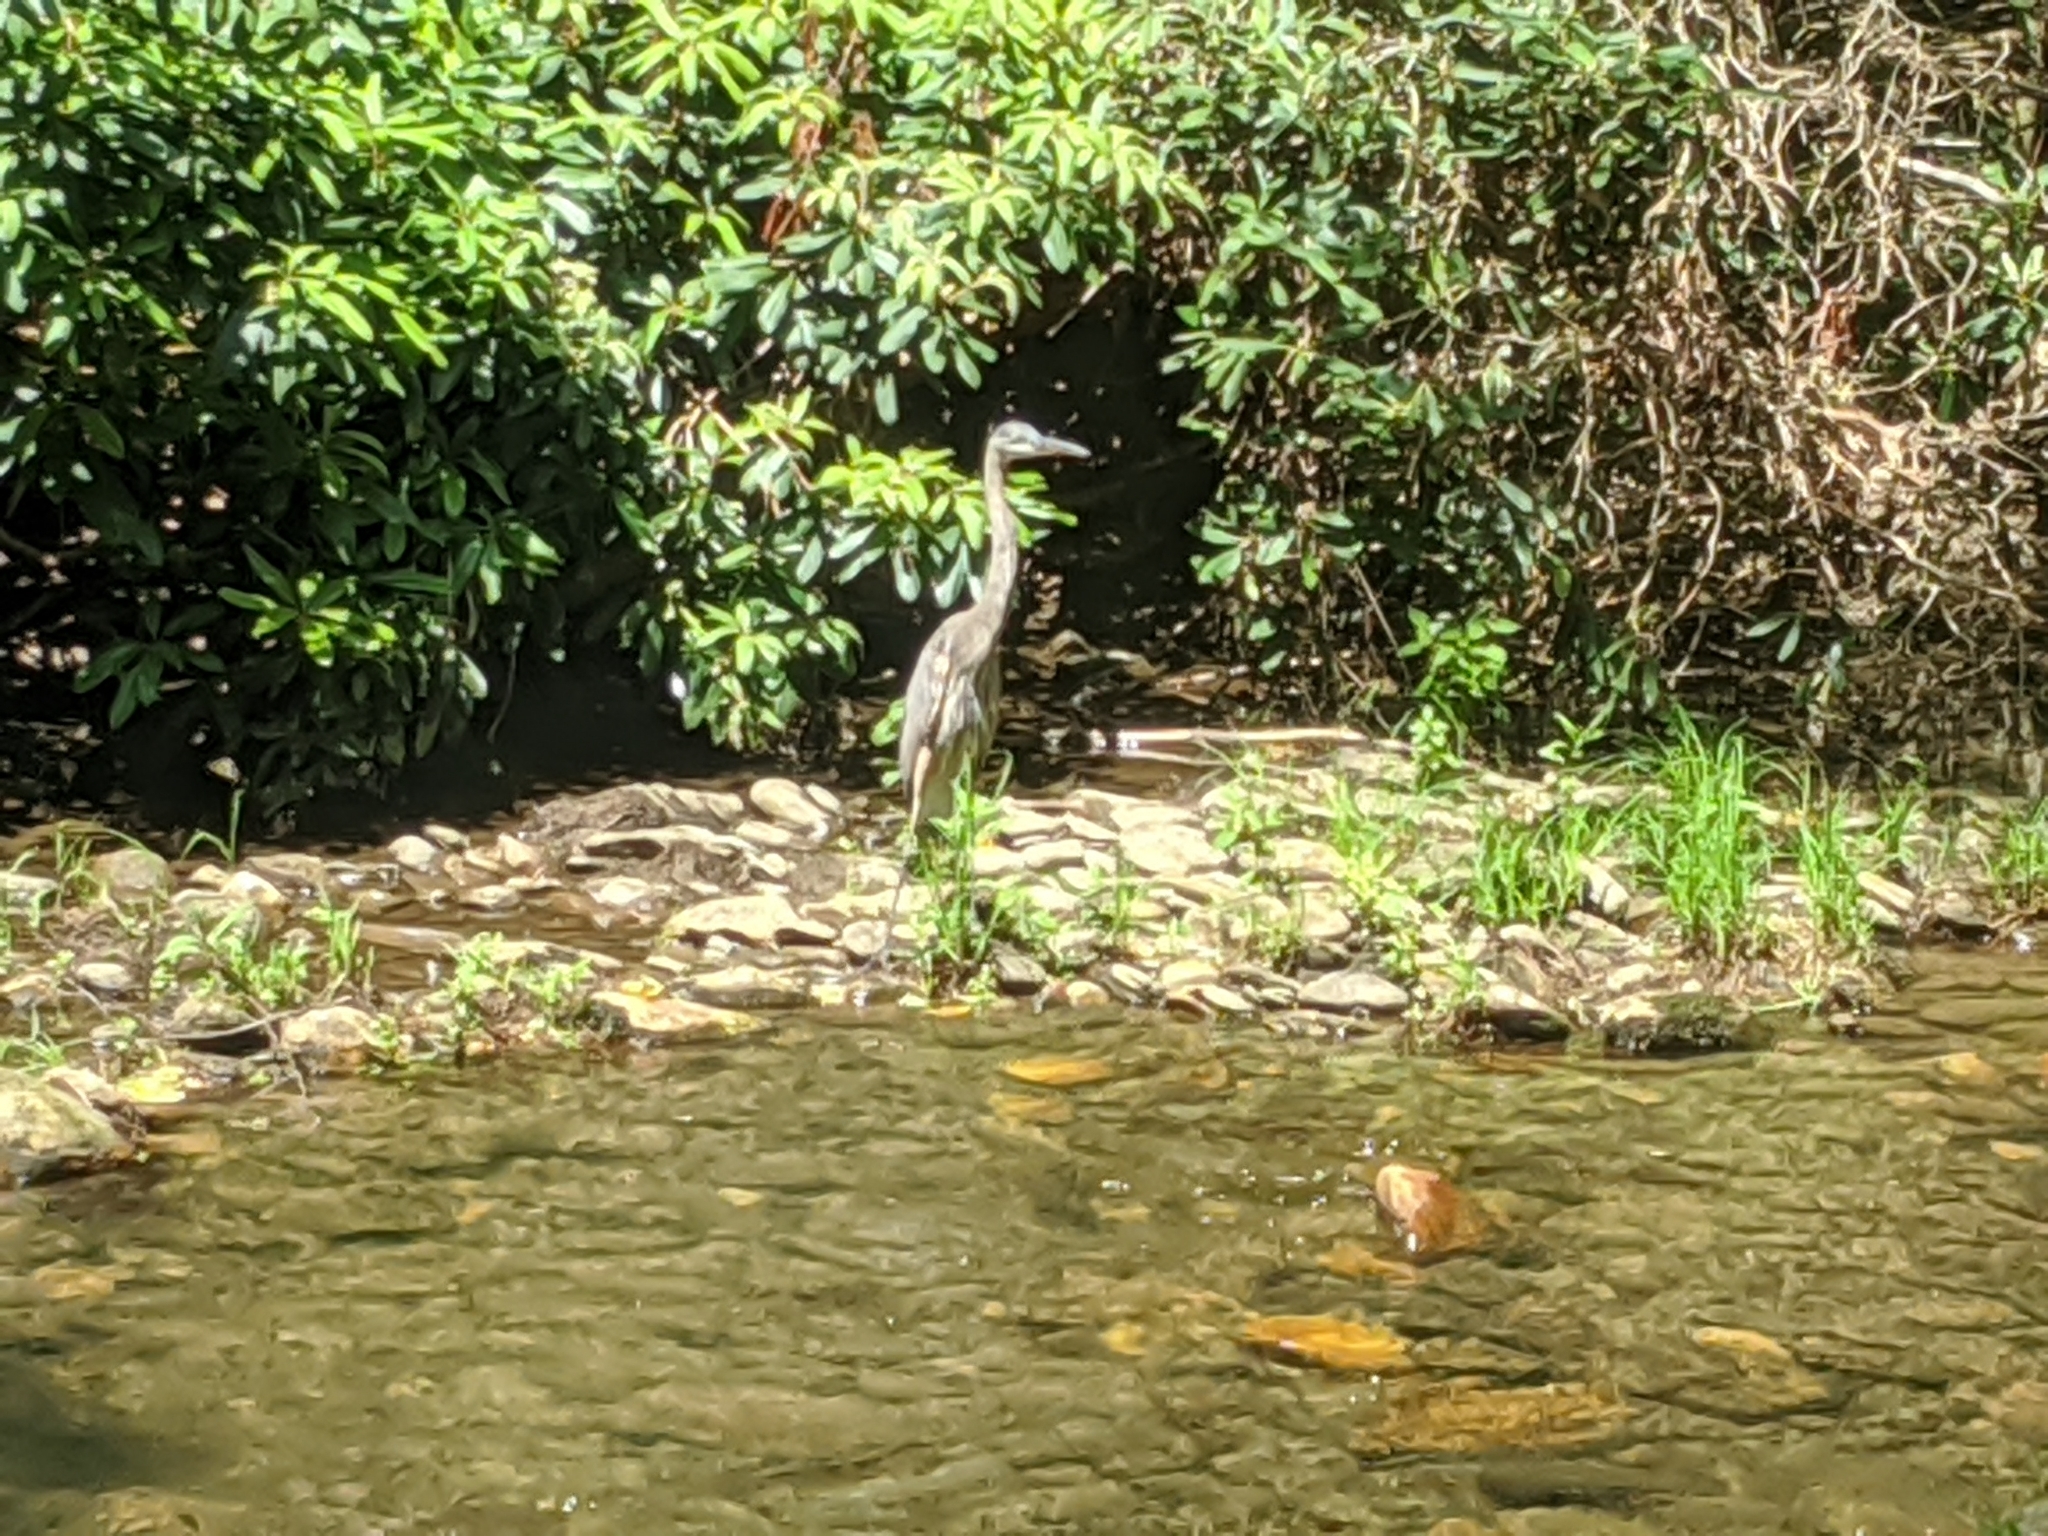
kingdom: Animalia
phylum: Chordata
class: Aves
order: Pelecaniformes
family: Ardeidae
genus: Ardea
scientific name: Ardea herodias
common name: Great blue heron
